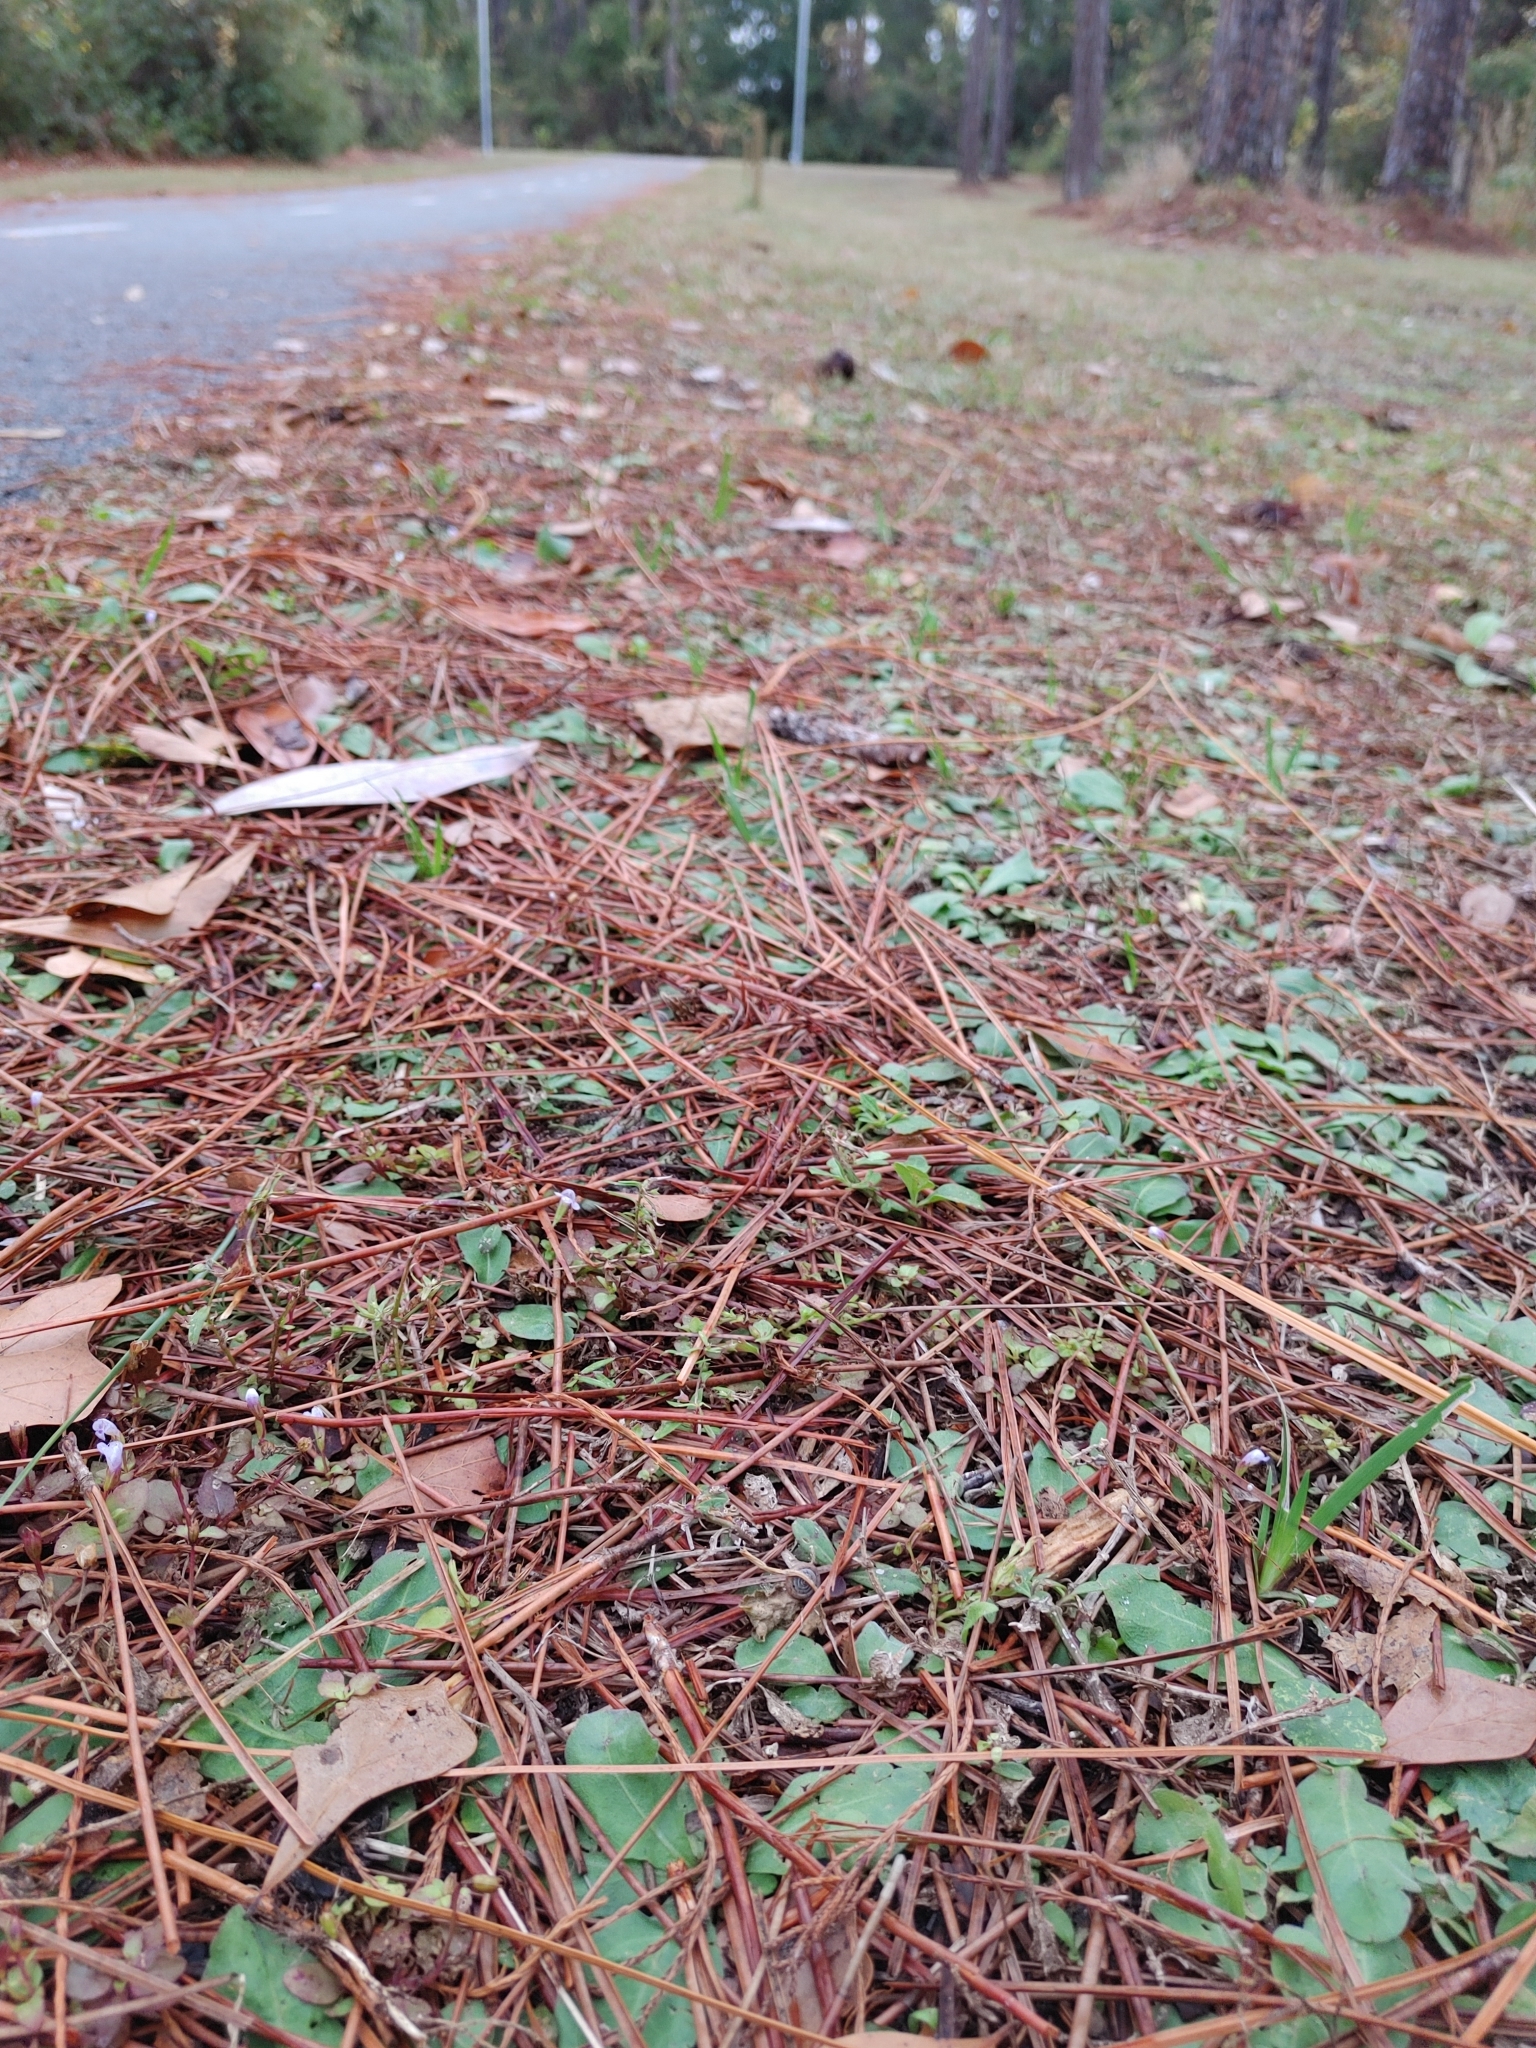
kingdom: Plantae
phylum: Tracheophyta
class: Magnoliopsida
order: Lamiales
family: Linderniaceae
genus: Torenia
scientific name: Torenia crustacea
